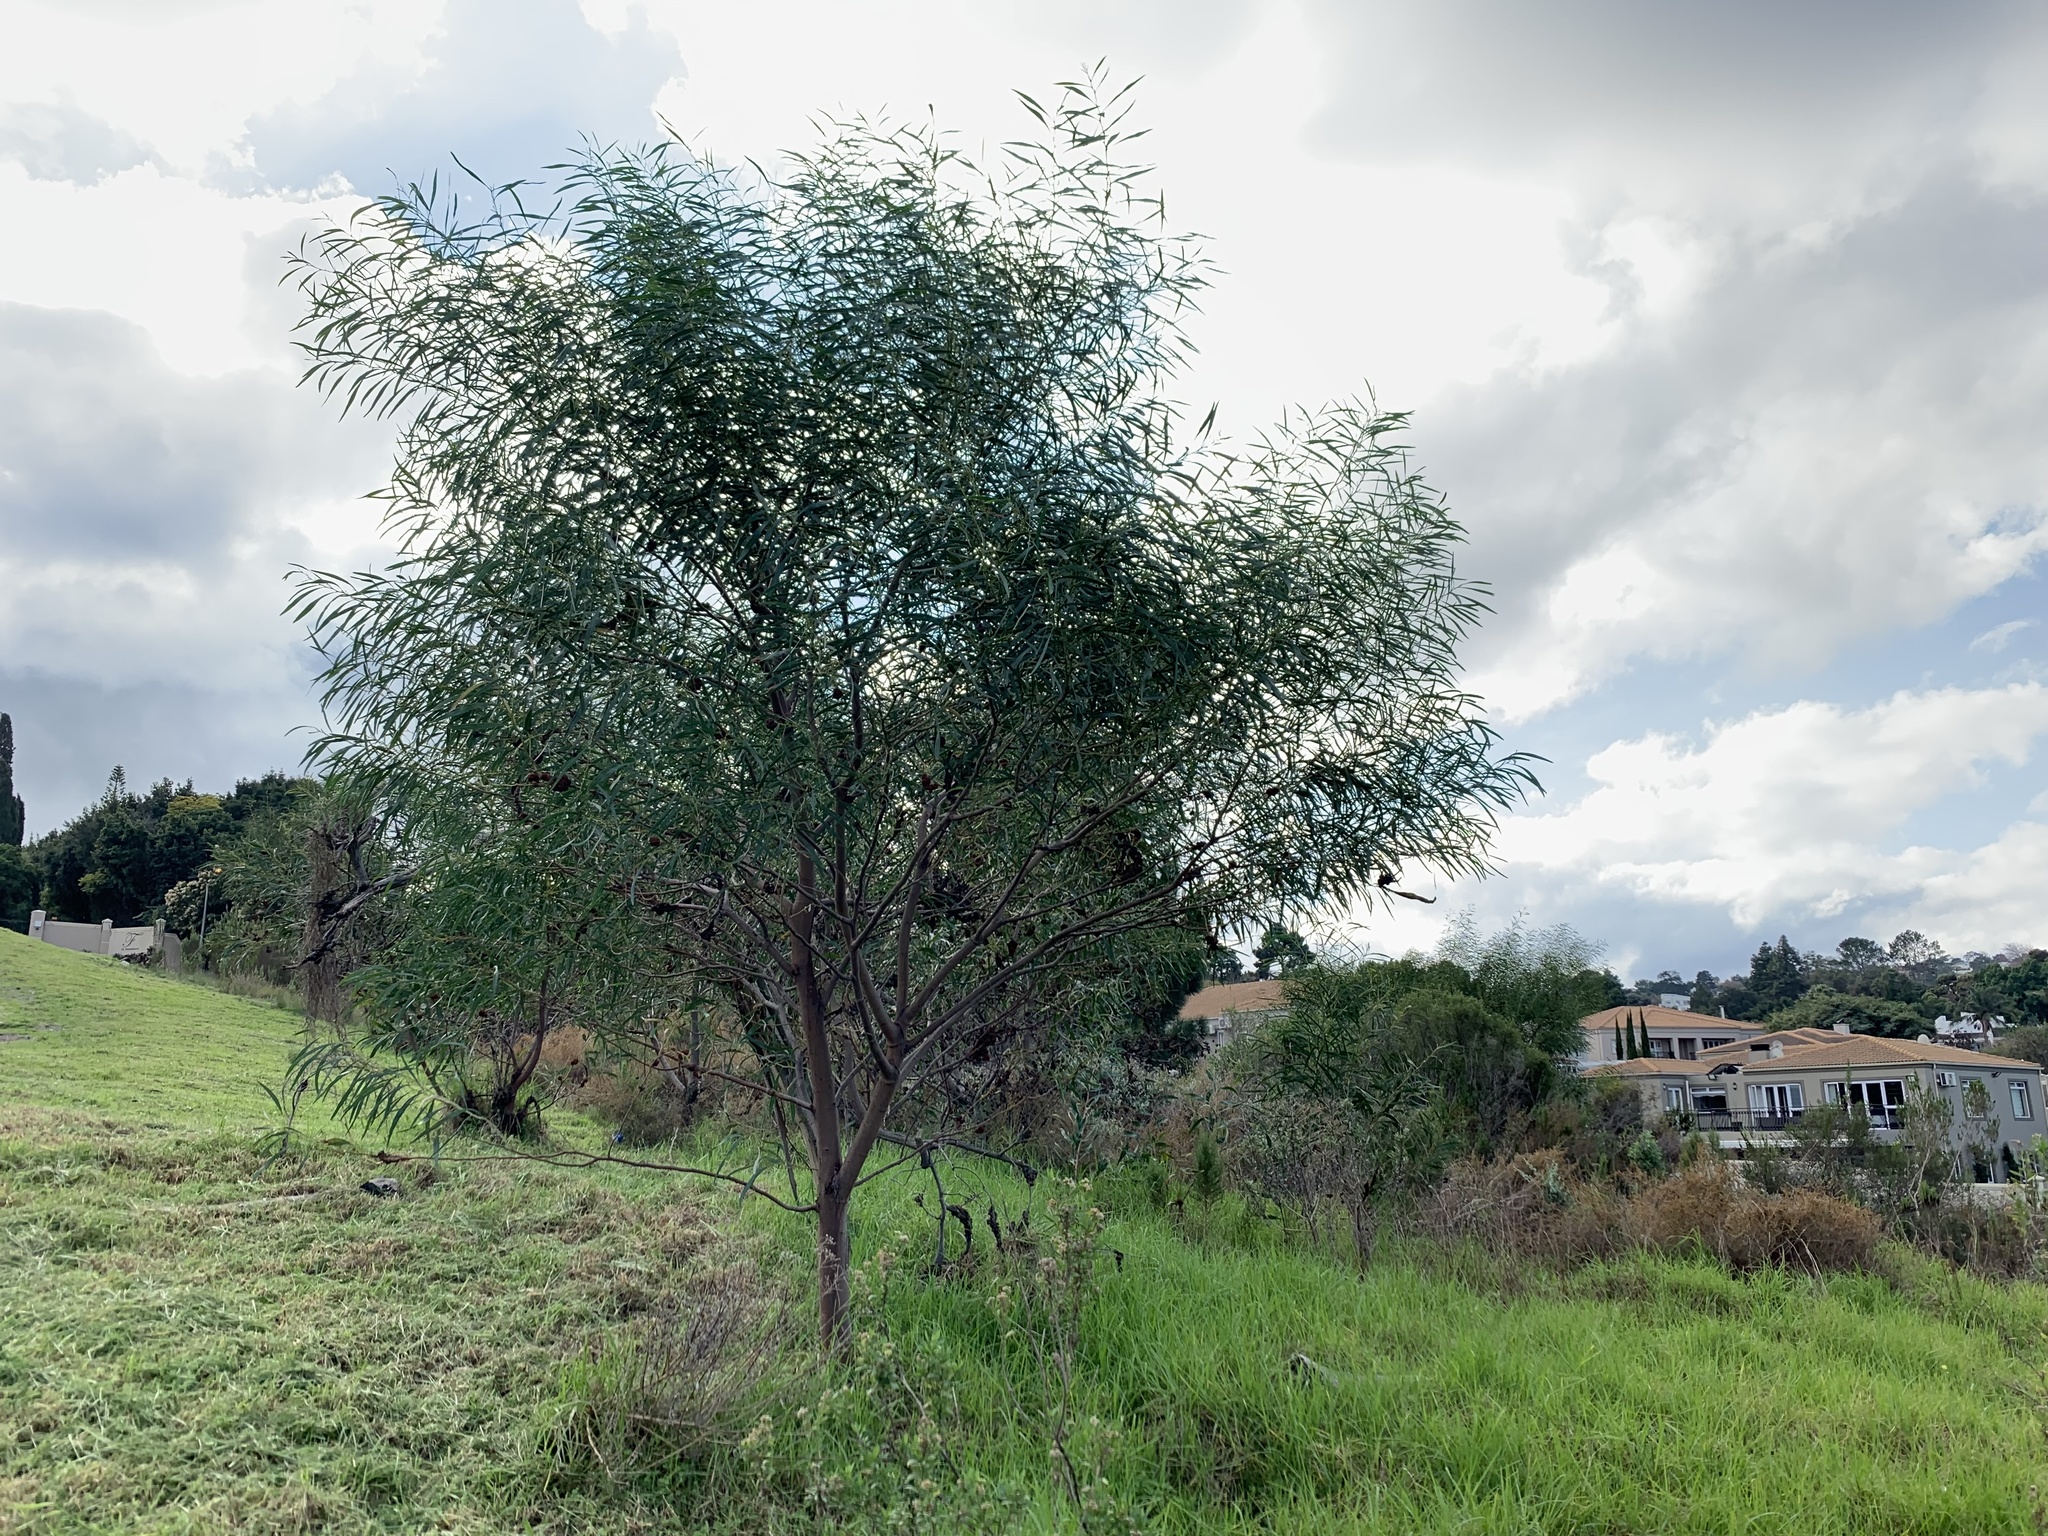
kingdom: Plantae
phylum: Tracheophyta
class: Magnoliopsida
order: Fabales
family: Fabaceae
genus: Acacia
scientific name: Acacia saligna
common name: Orange wattle
